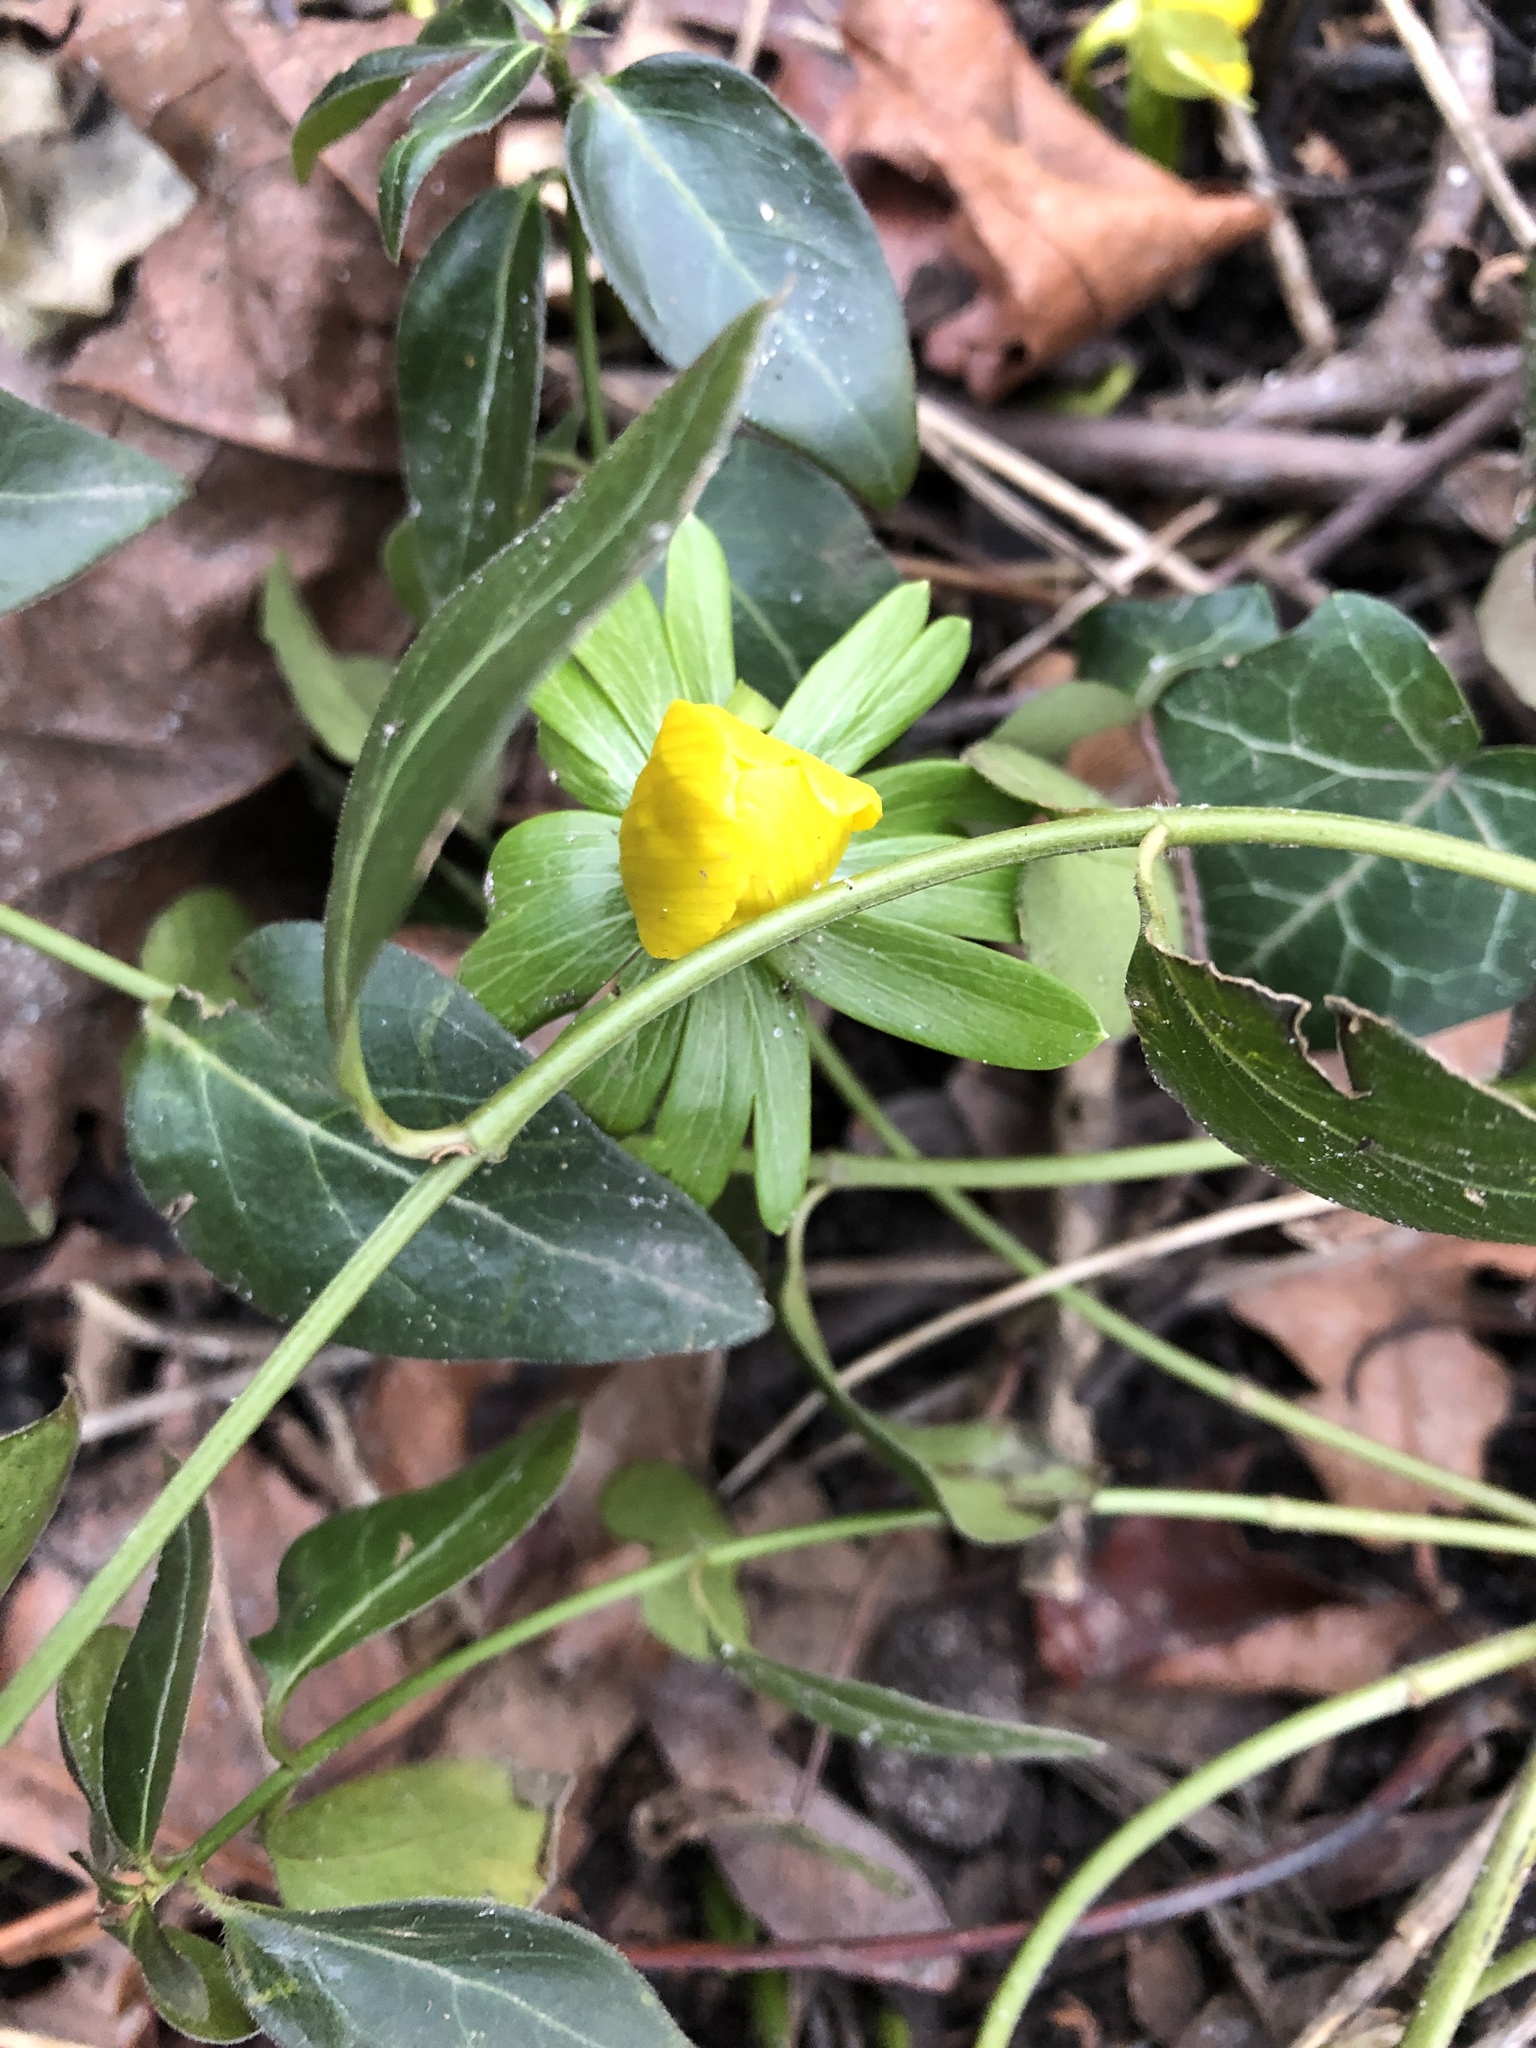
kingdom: Plantae
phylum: Tracheophyta
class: Magnoliopsida
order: Ranunculales
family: Ranunculaceae
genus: Eranthis
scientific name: Eranthis hyemalis
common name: Winter aconite
